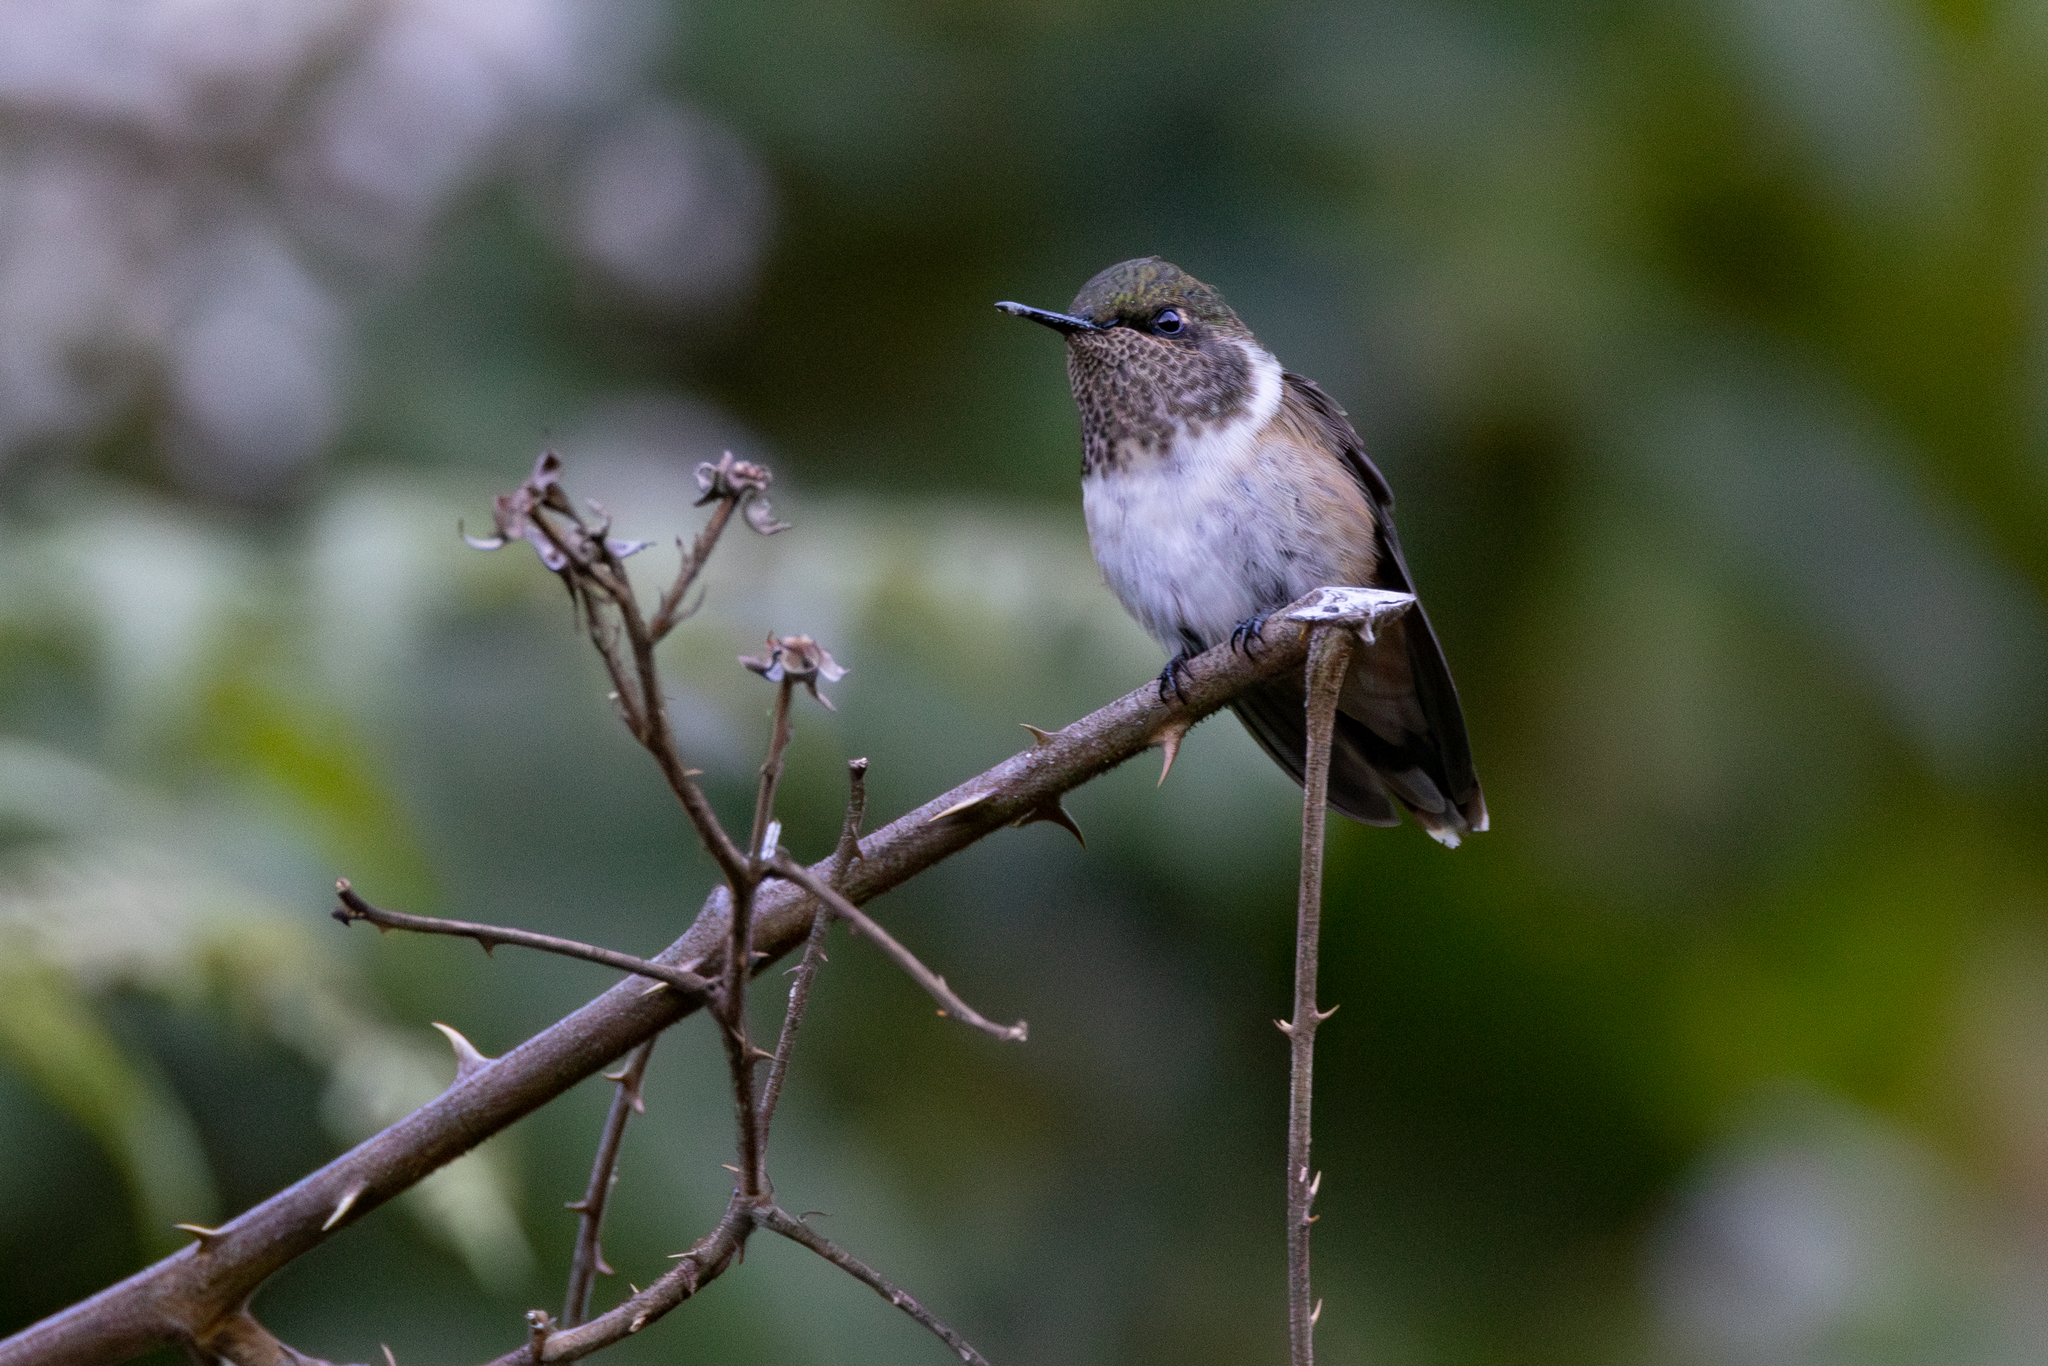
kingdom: Animalia
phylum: Chordata
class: Aves
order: Apodiformes
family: Trochilidae
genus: Selasphorus
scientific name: Selasphorus flammula
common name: Volcano hummingbird
